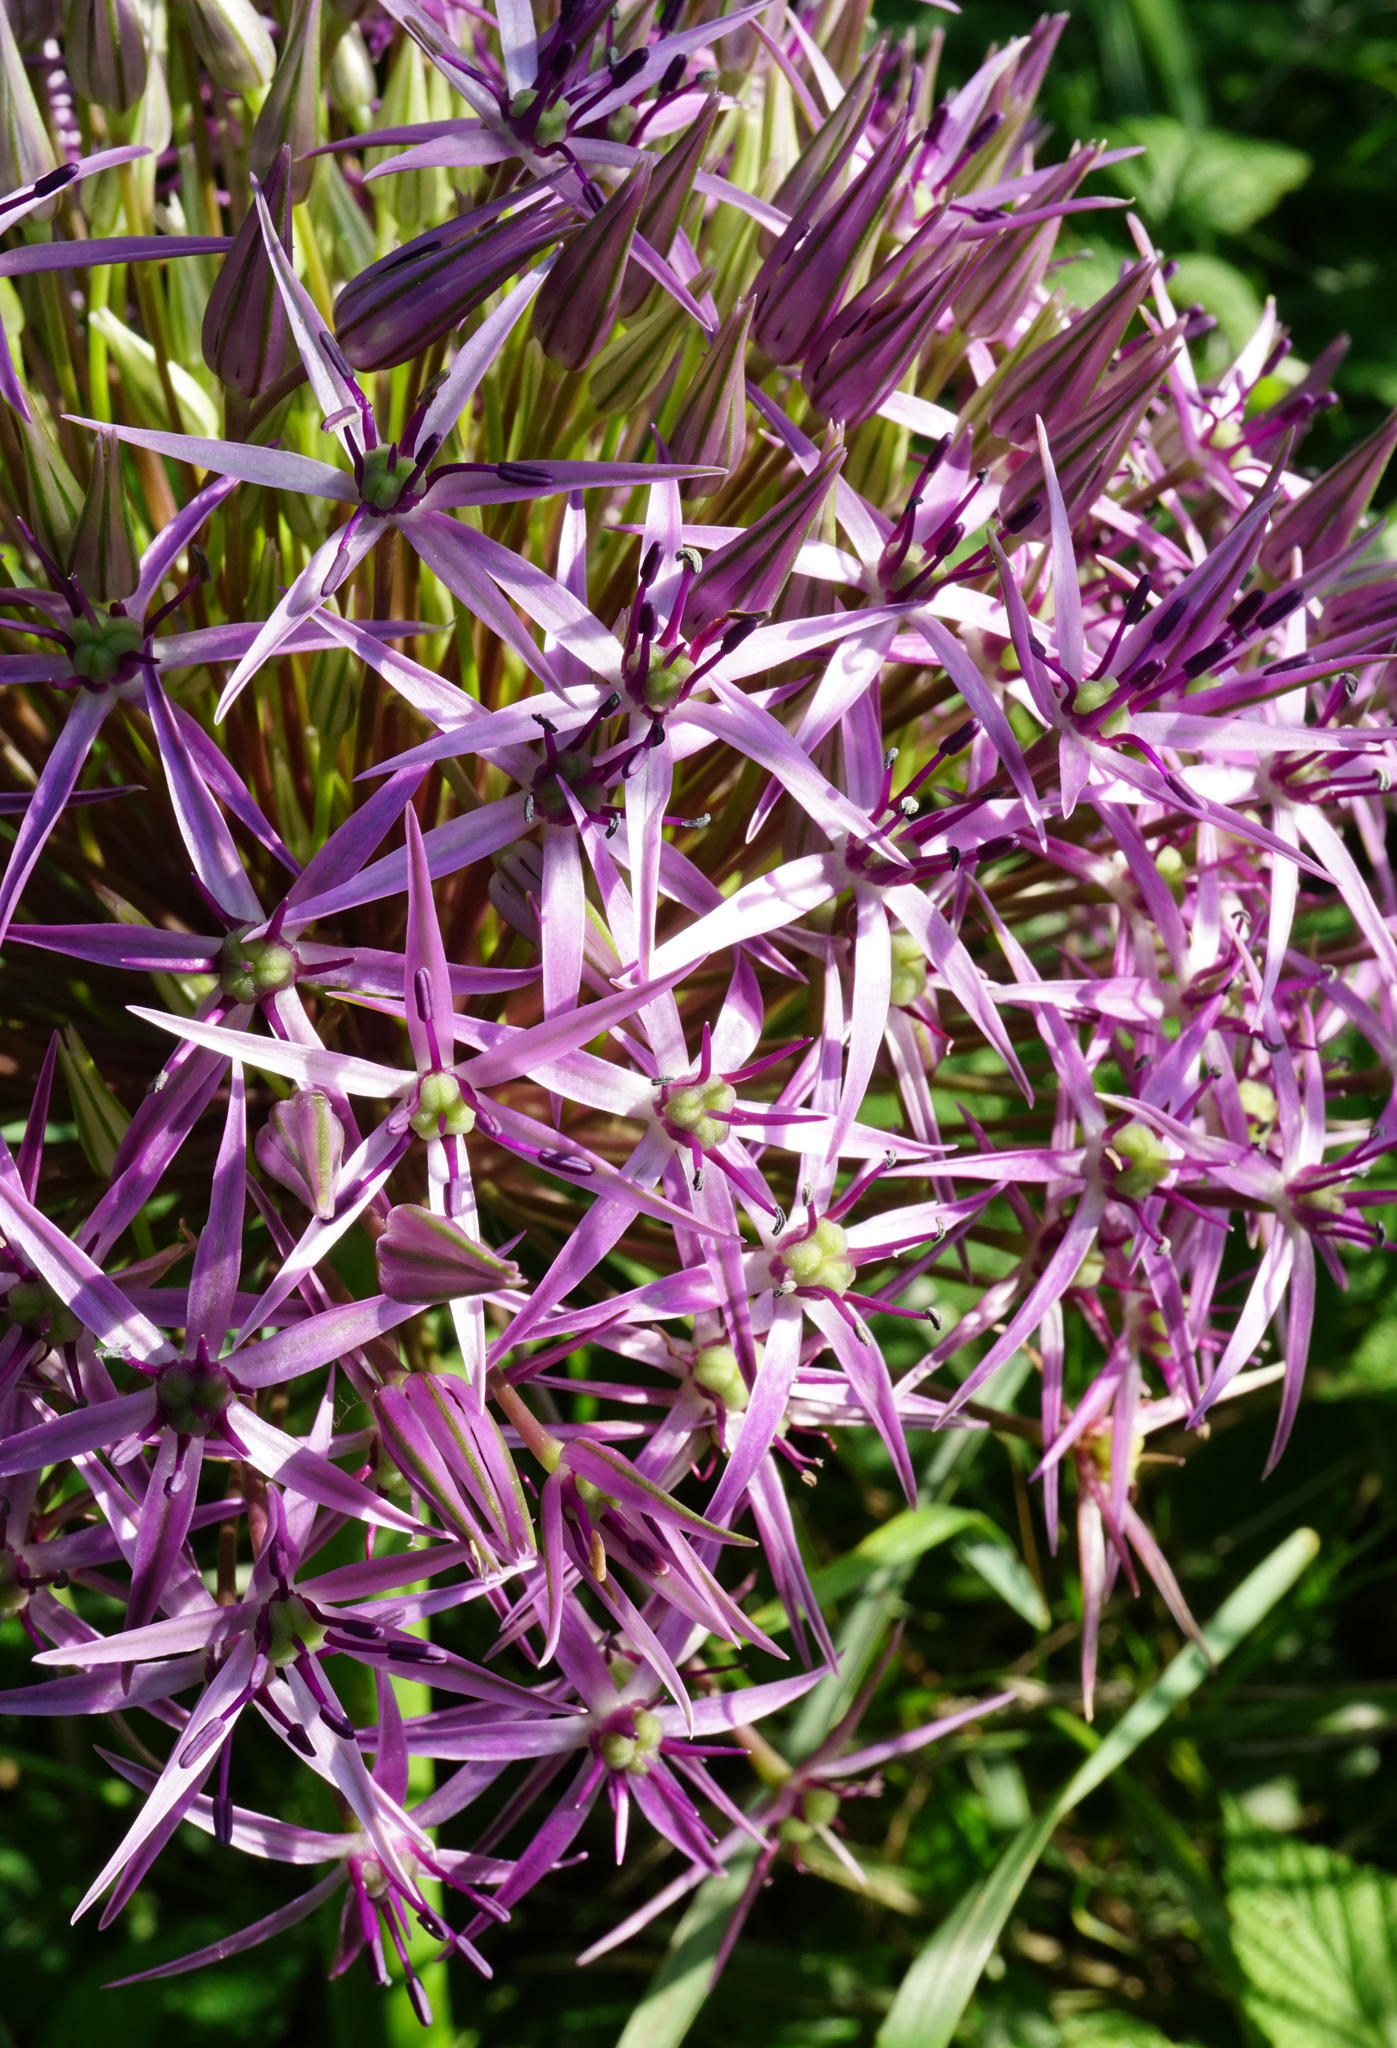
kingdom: Plantae
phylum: Tracheophyta
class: Liliopsida
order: Asparagales
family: Amaryllidaceae
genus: Allium
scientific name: Allium cristophii
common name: Persian onion
